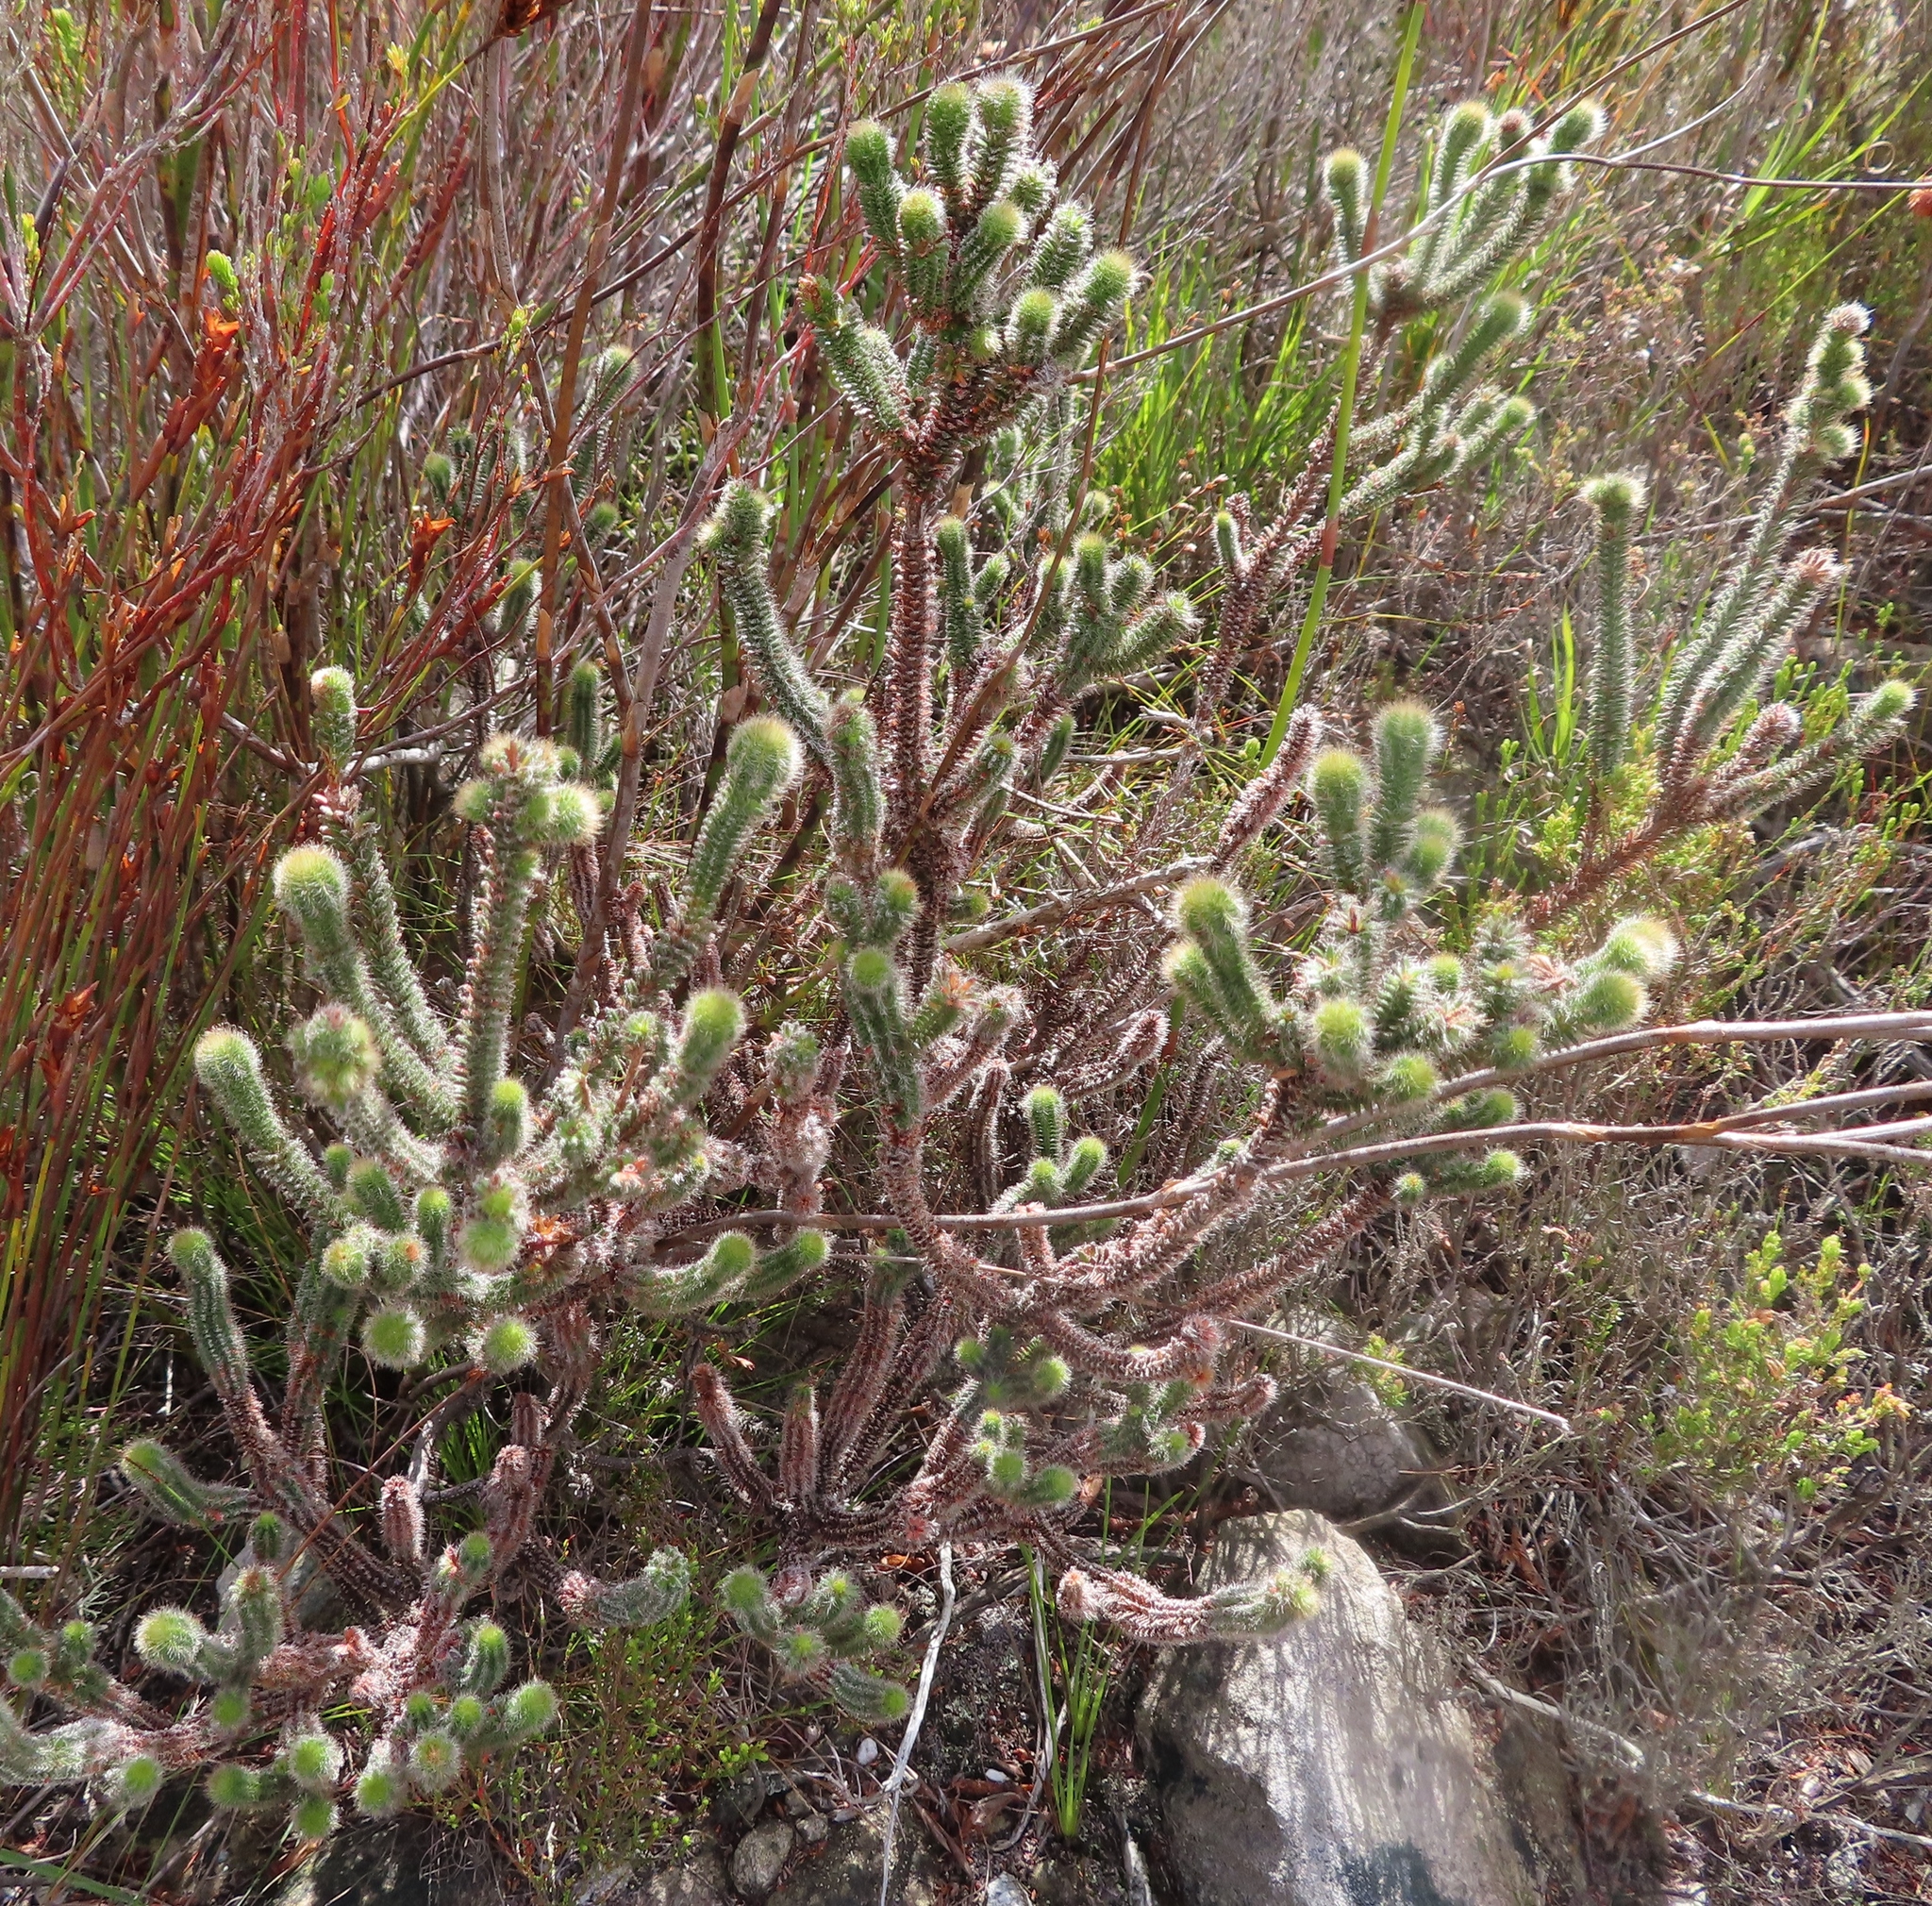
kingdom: Plantae
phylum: Tracheophyta
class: Magnoliopsida
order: Ericales
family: Ericaceae
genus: Erica
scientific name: Erica massonii
